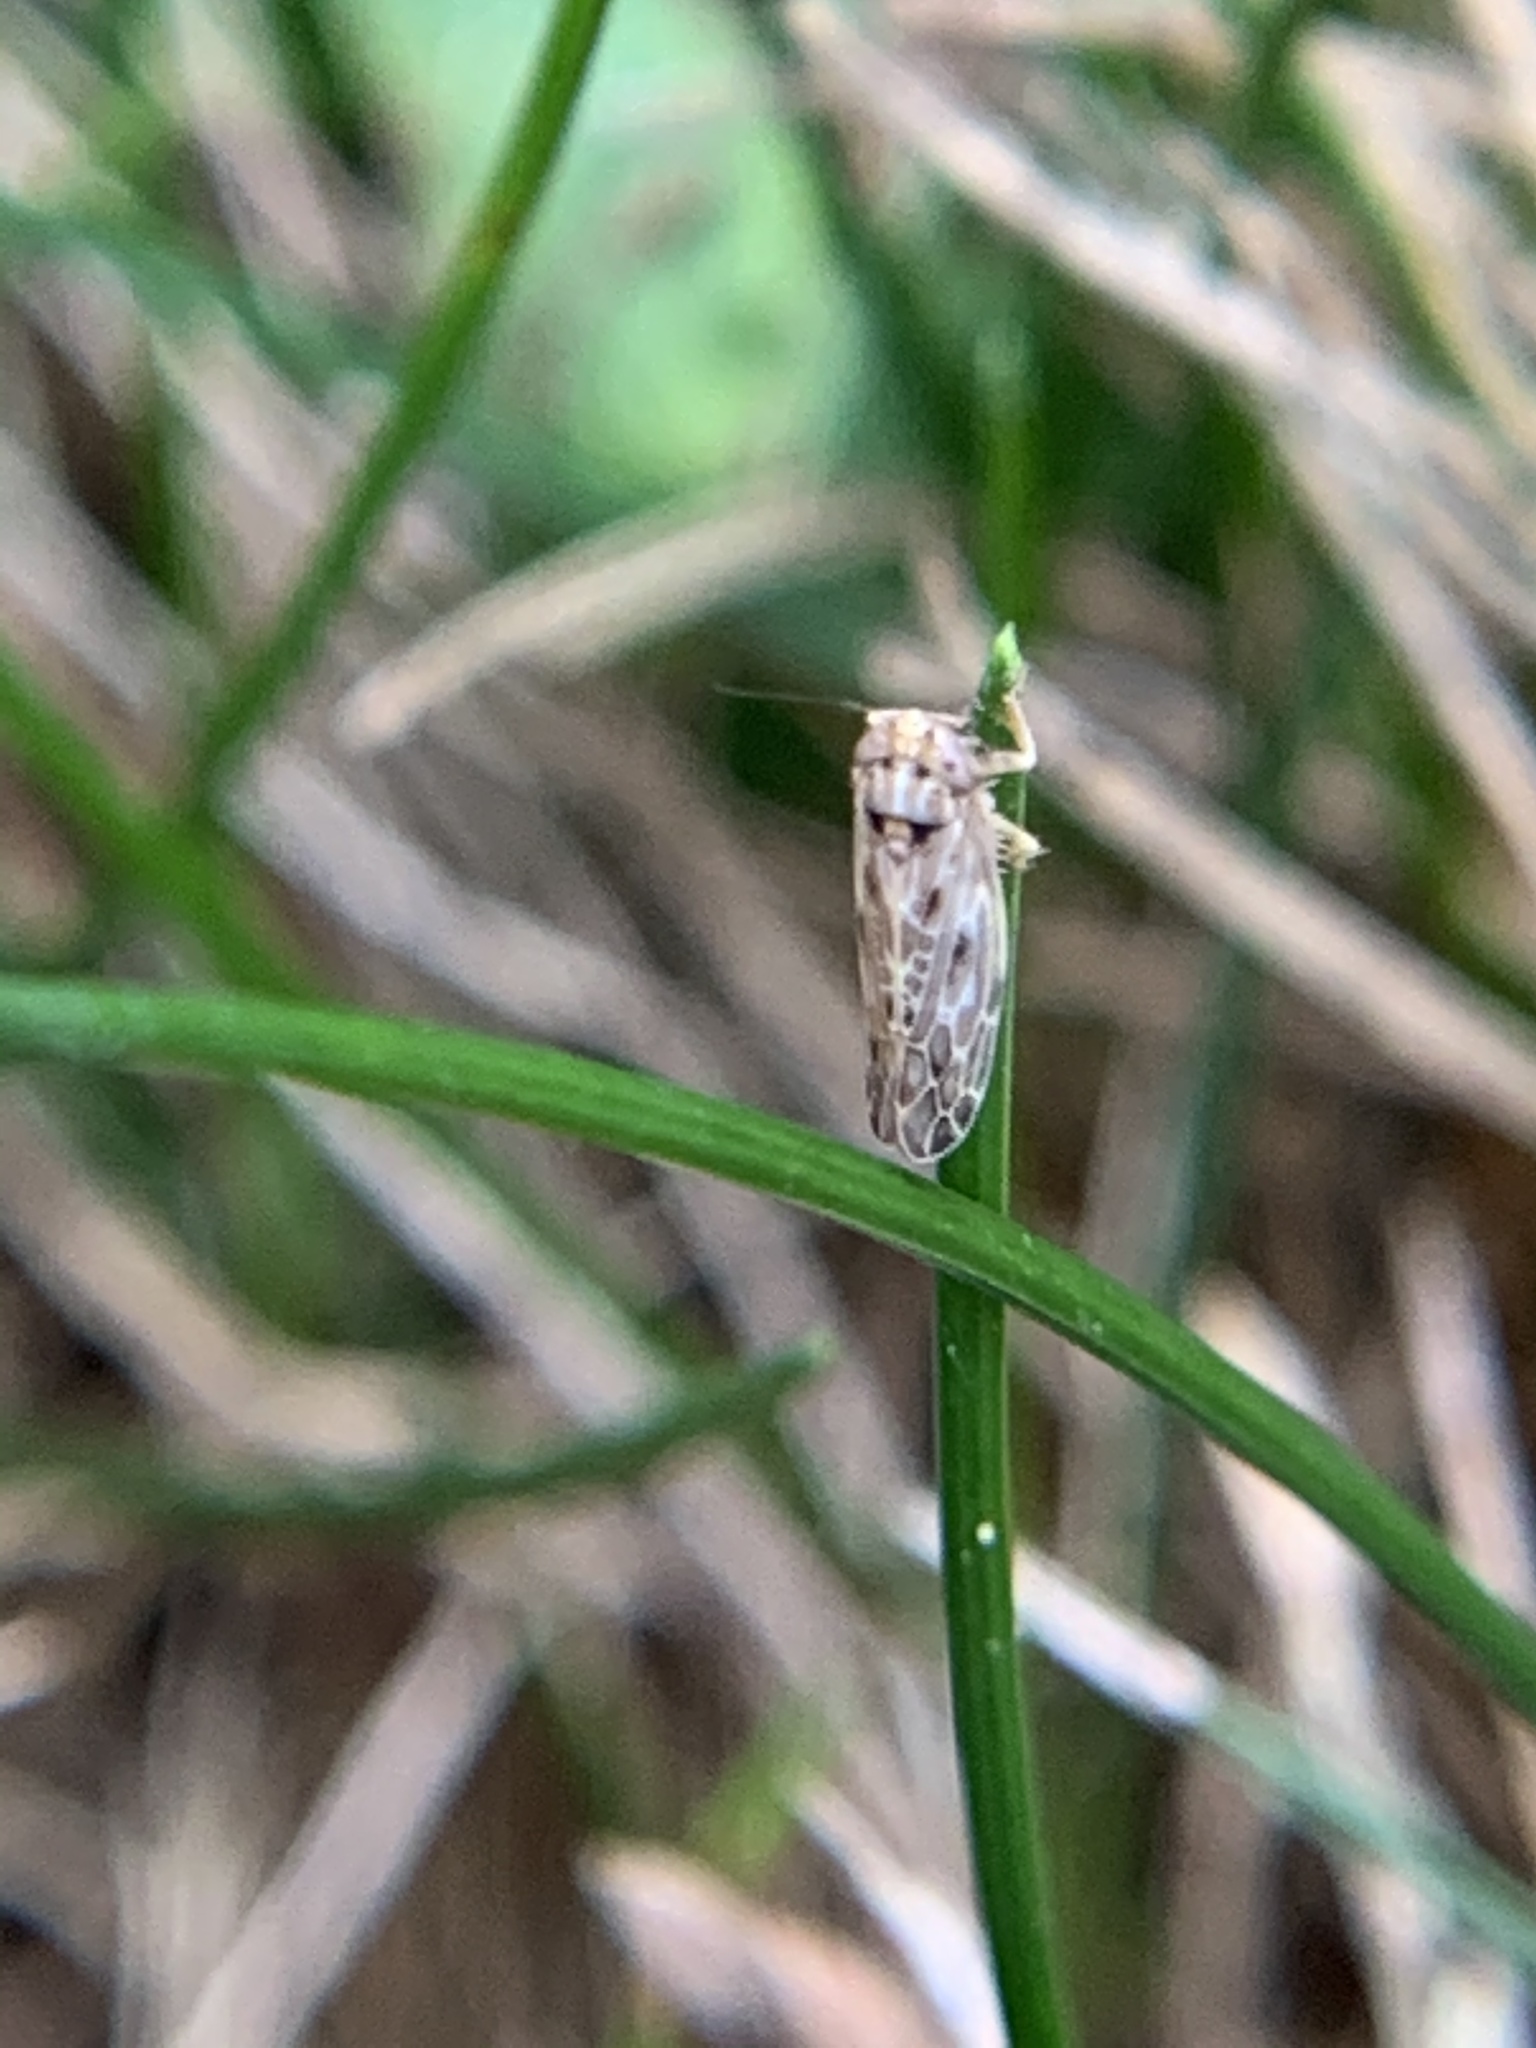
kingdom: Animalia
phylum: Arthropoda
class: Insecta
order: Hemiptera
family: Cicadellidae
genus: Endria
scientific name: Endria inimicus
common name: Painted leafhopper
